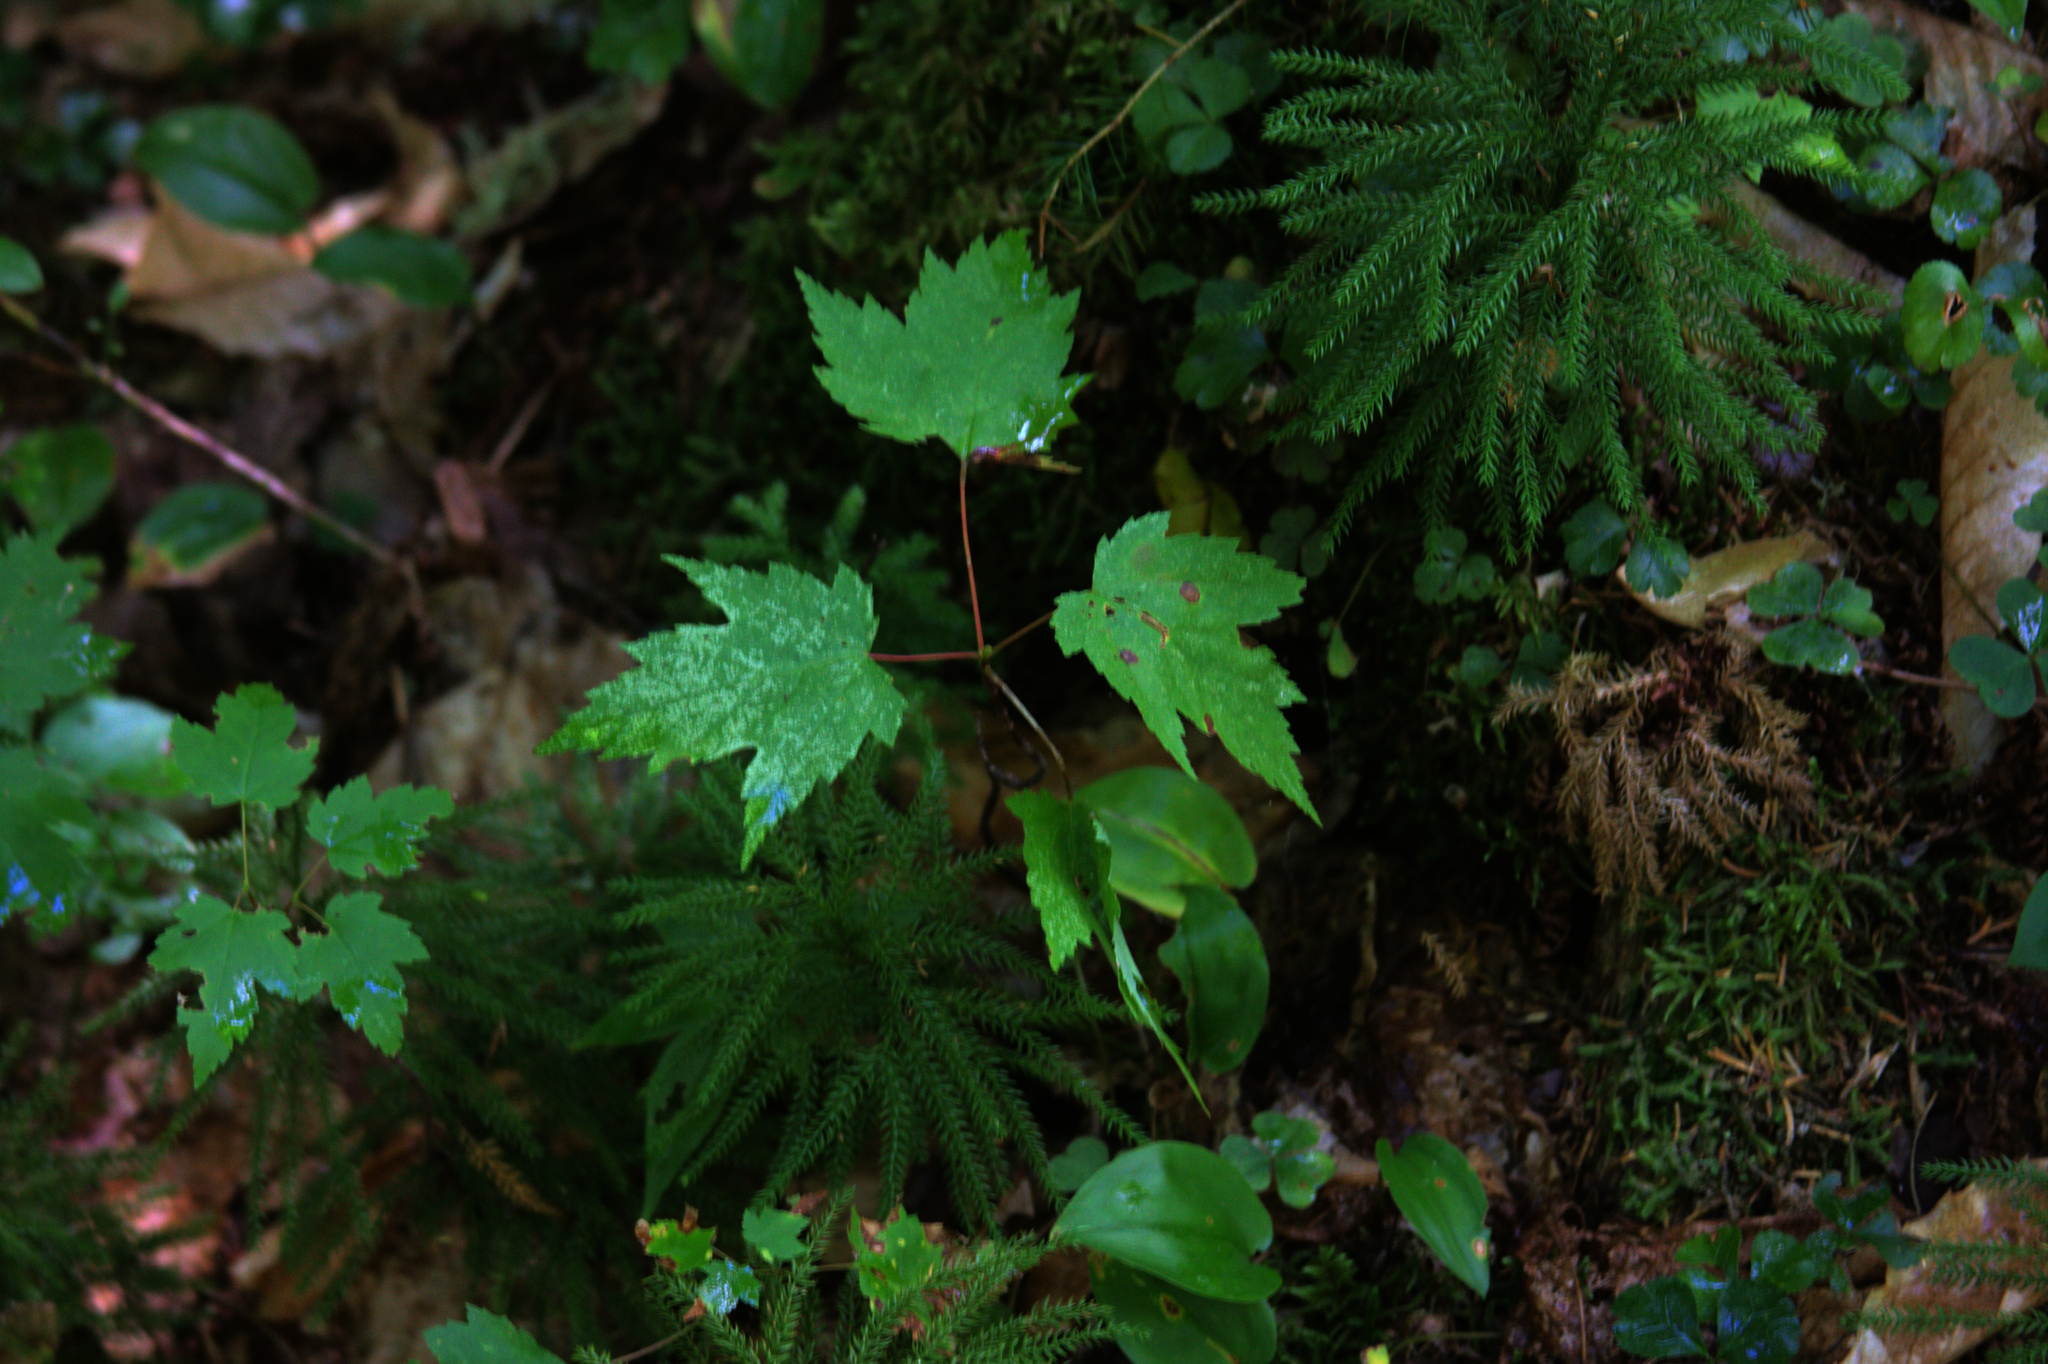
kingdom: Plantae
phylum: Tracheophyta
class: Magnoliopsida
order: Sapindales
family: Sapindaceae
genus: Acer
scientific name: Acer rubrum
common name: Red maple
